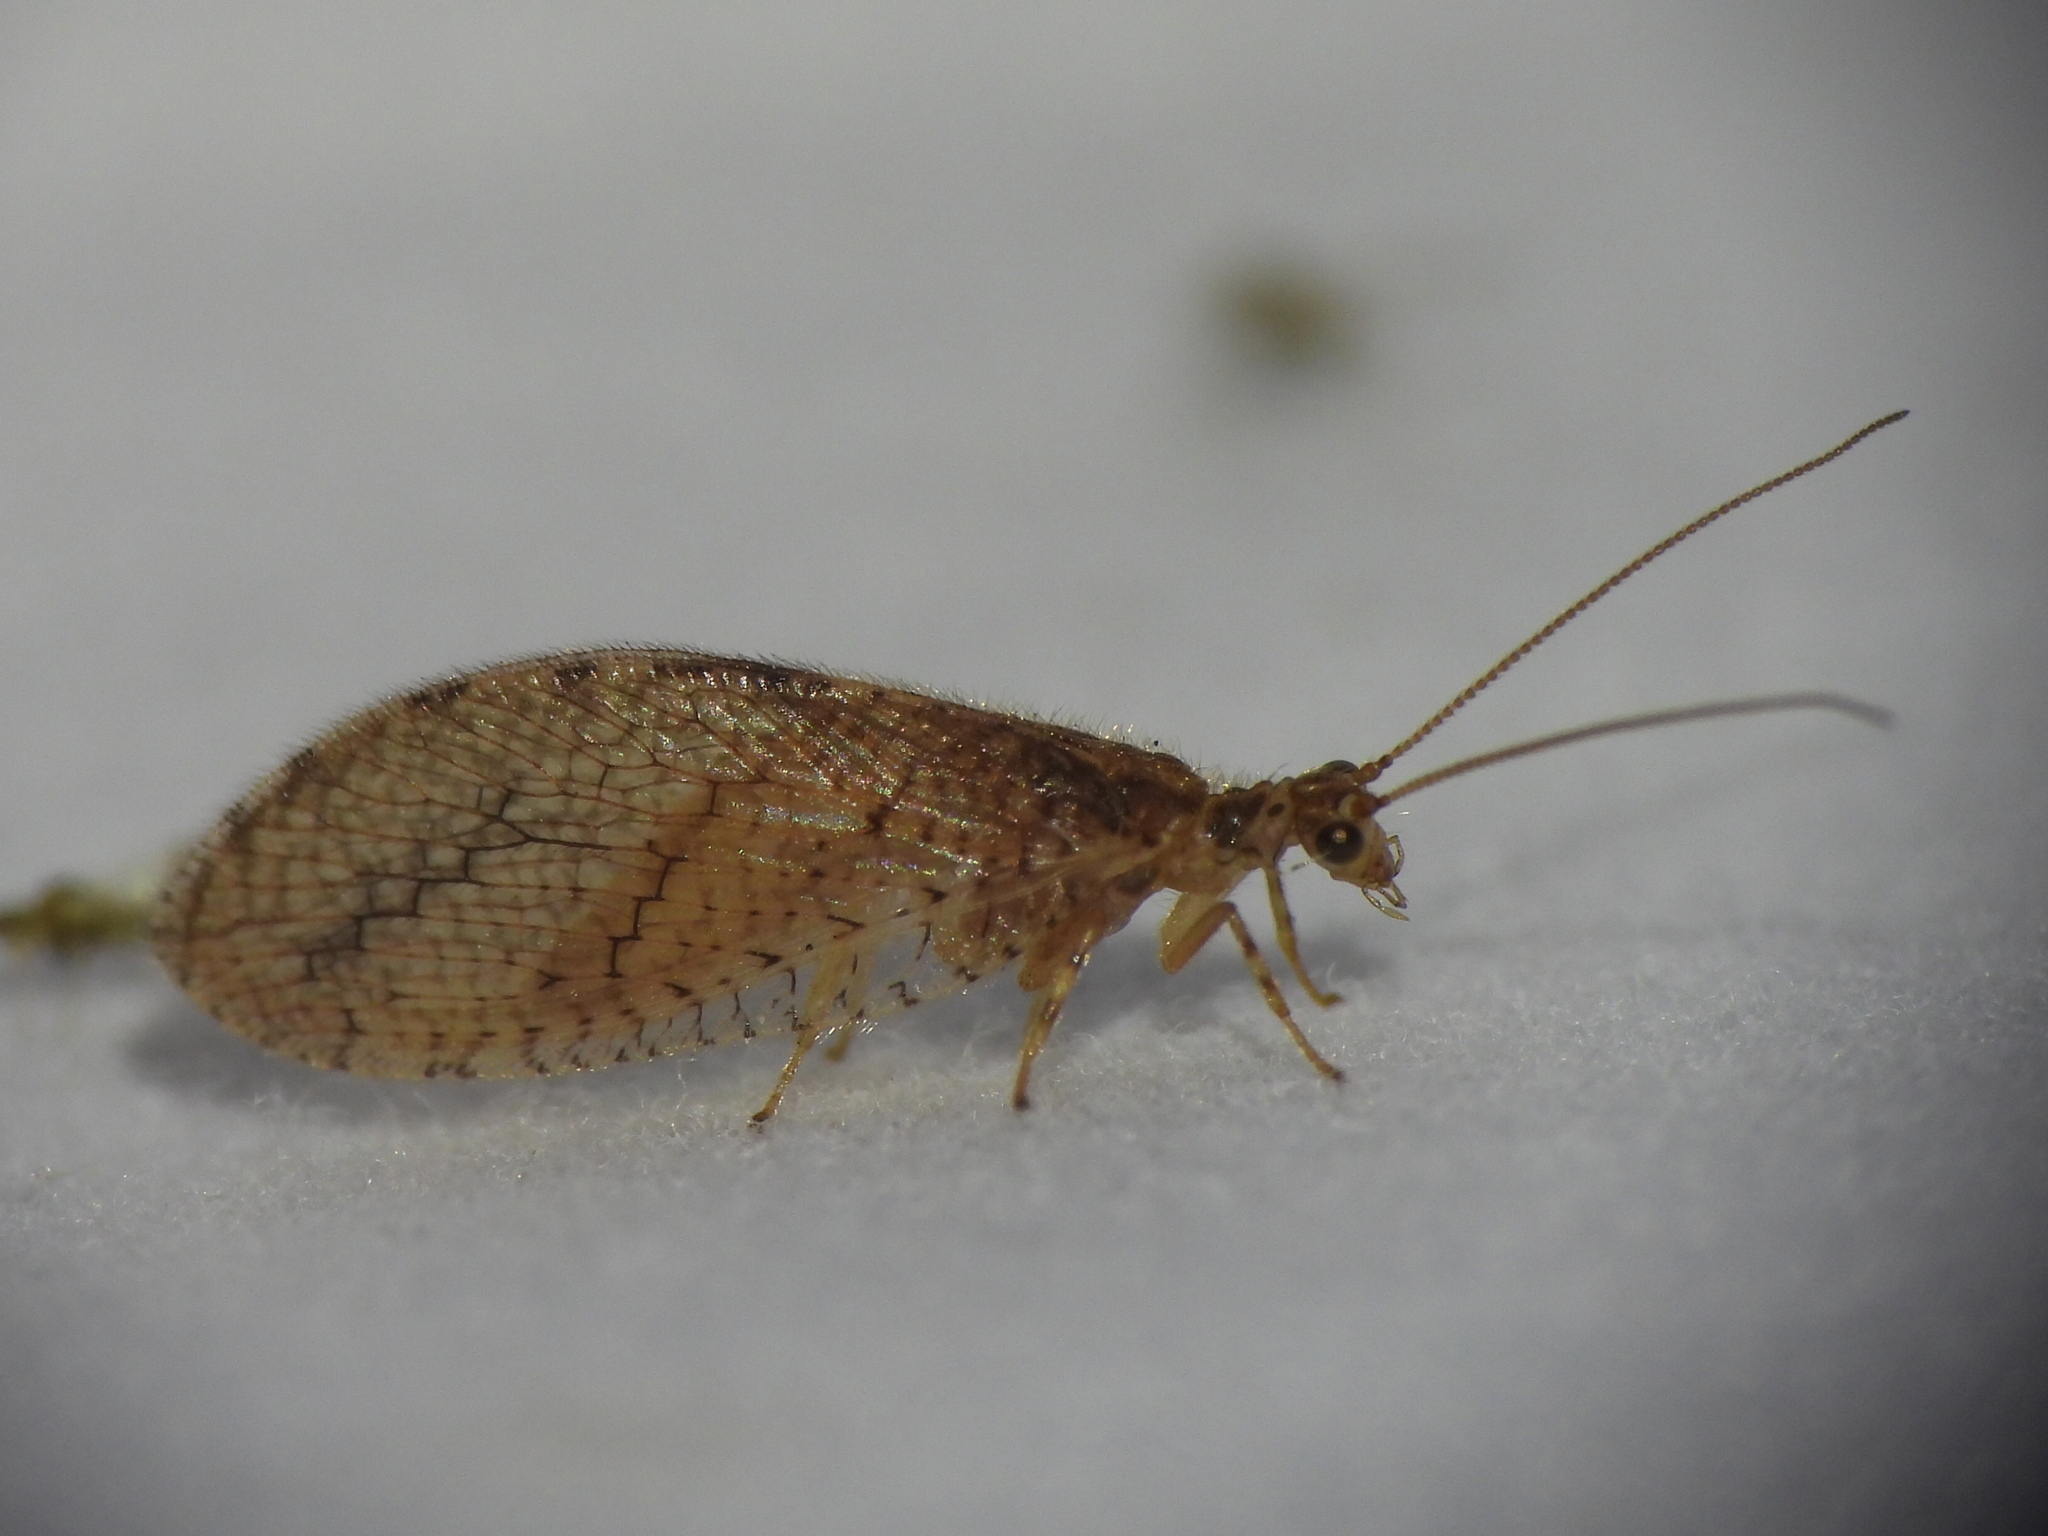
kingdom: Animalia
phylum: Arthropoda
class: Insecta
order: Neuroptera
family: Hemerobiidae
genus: Micromus
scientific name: Micromus posticus
